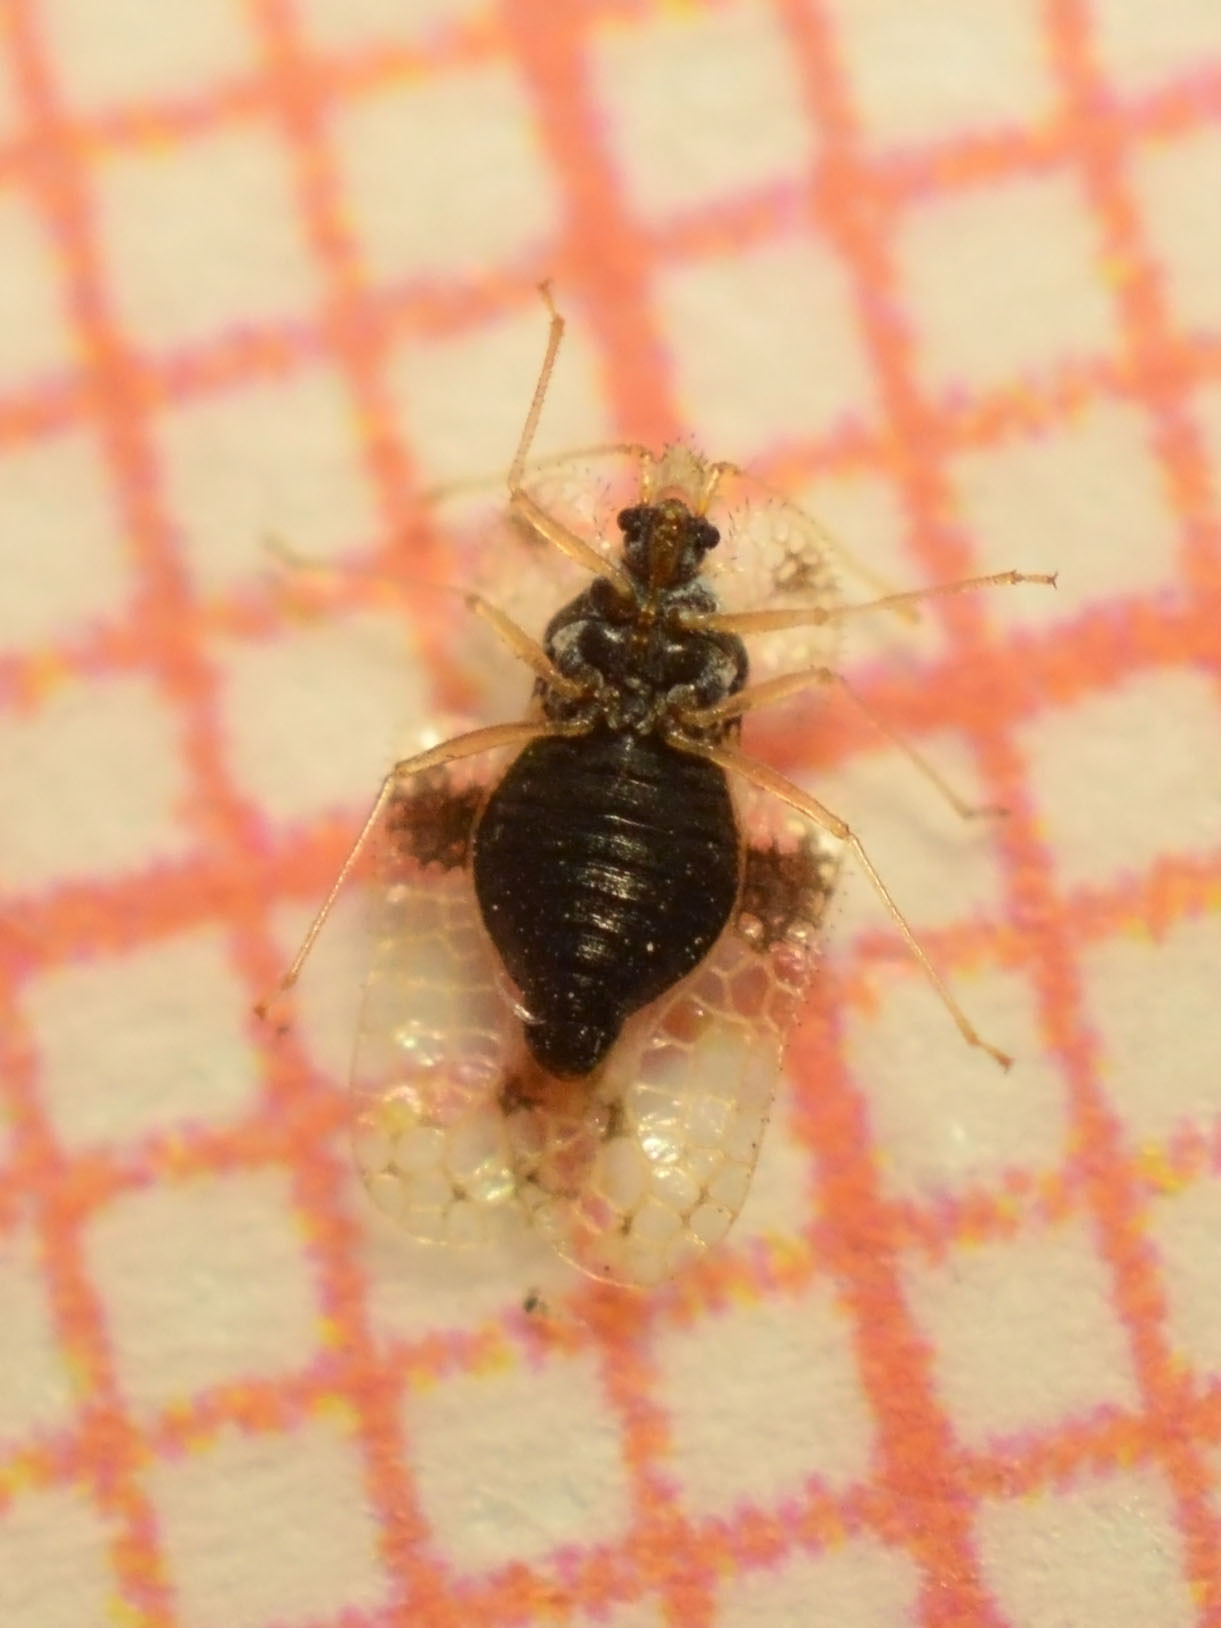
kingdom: Animalia
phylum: Arthropoda
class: Insecta
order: Hemiptera
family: Tingidae
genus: Corythucha
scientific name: Corythucha arcuata
